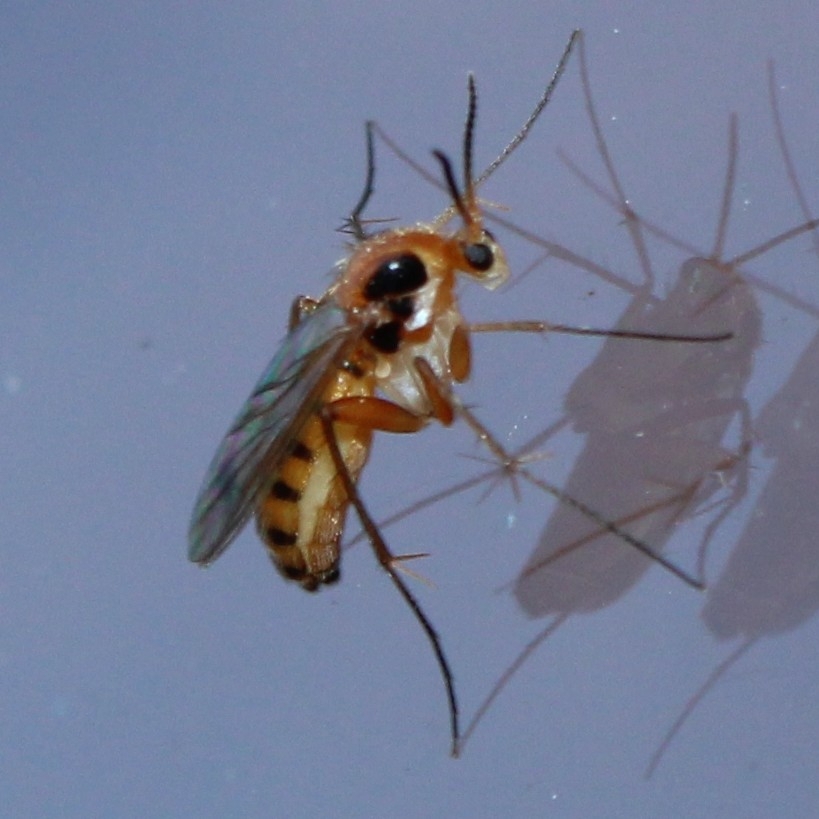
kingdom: Animalia
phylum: Arthropoda
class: Insecta
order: Diptera
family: Mycetophilidae
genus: Leia
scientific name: Leia bivittata
